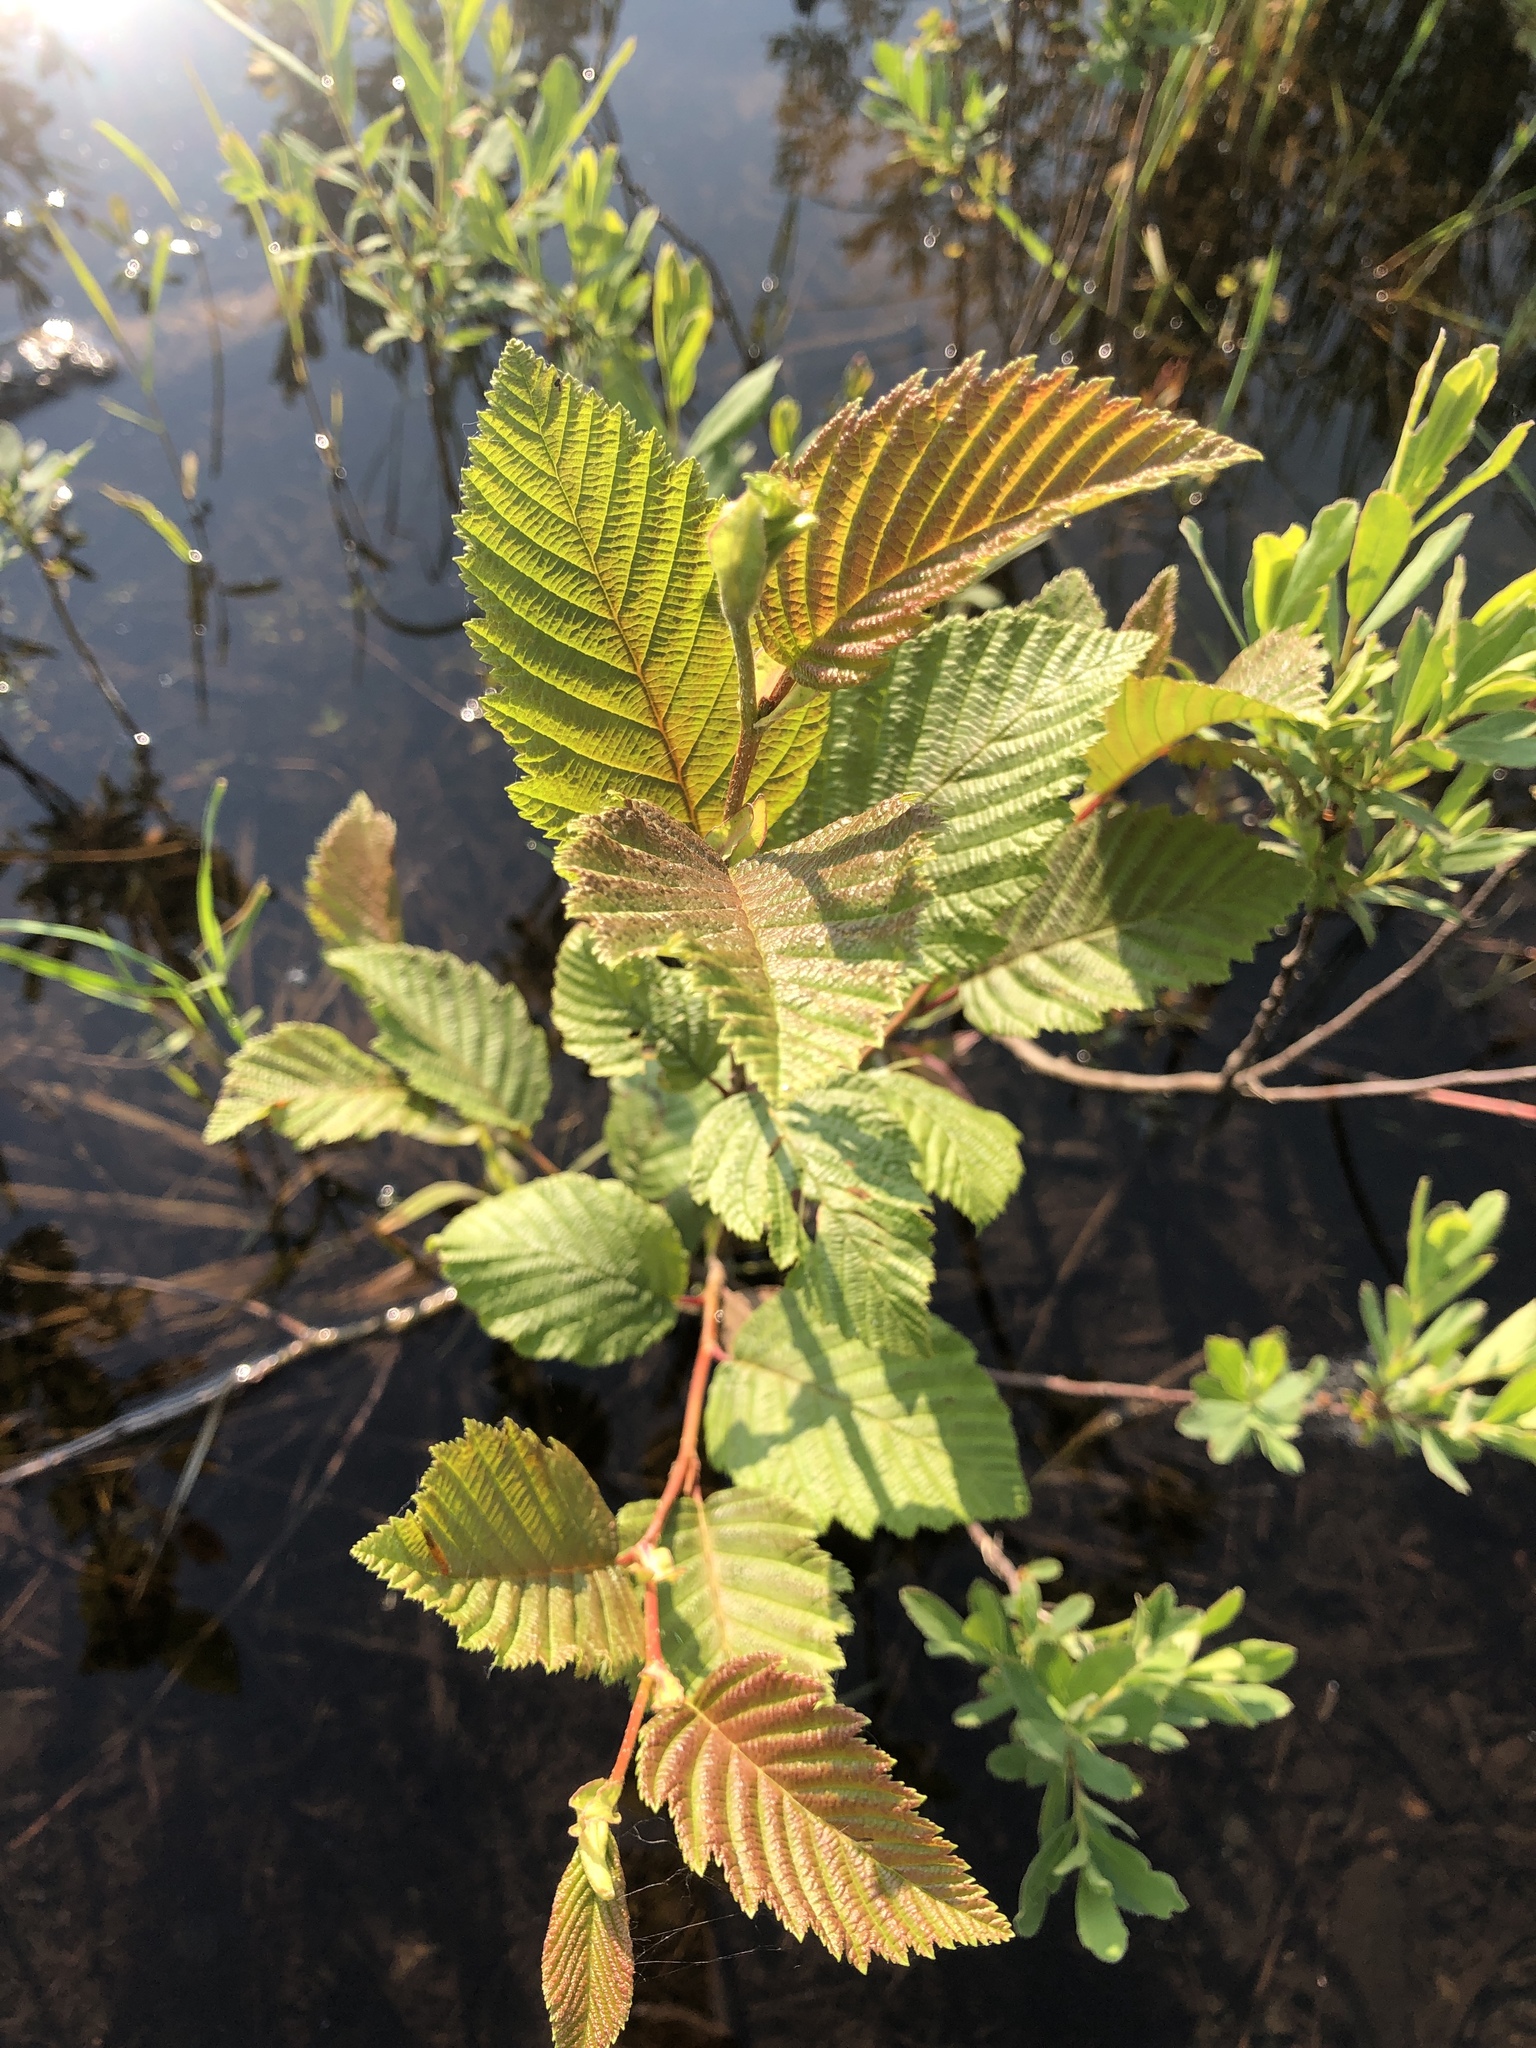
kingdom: Plantae
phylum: Tracheophyta
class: Magnoliopsida
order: Fagales
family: Betulaceae
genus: Alnus
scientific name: Alnus incana
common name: Grey alder
